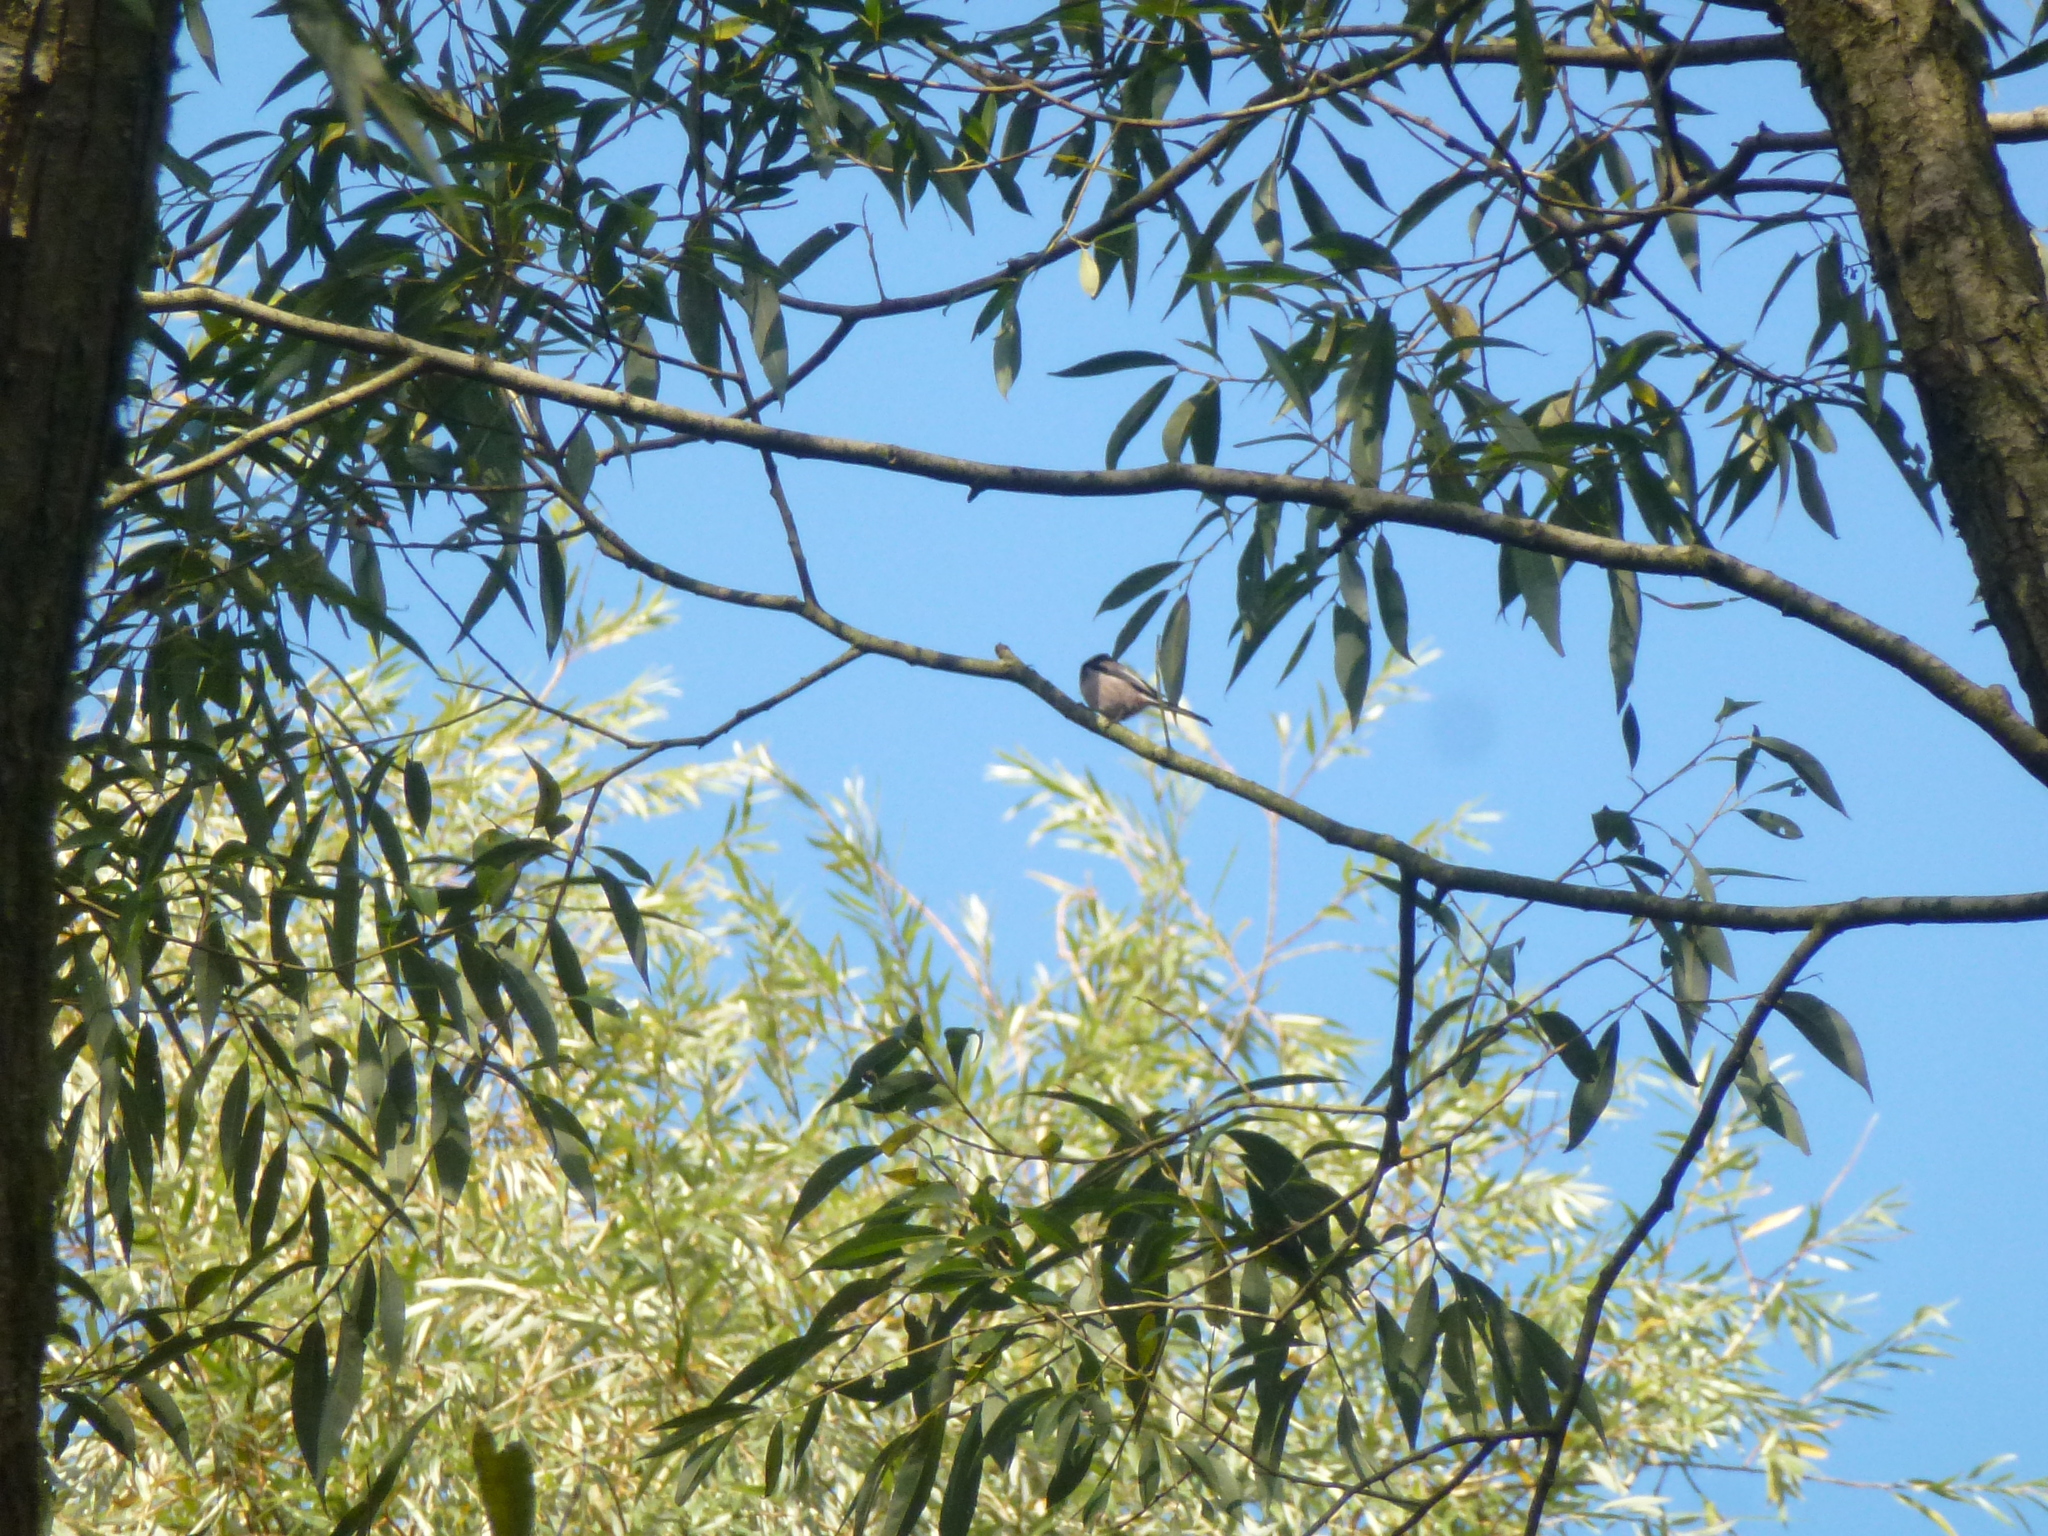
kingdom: Animalia
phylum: Chordata
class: Aves
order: Passeriformes
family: Aegithalidae
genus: Aegithalos
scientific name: Aegithalos caudatus
